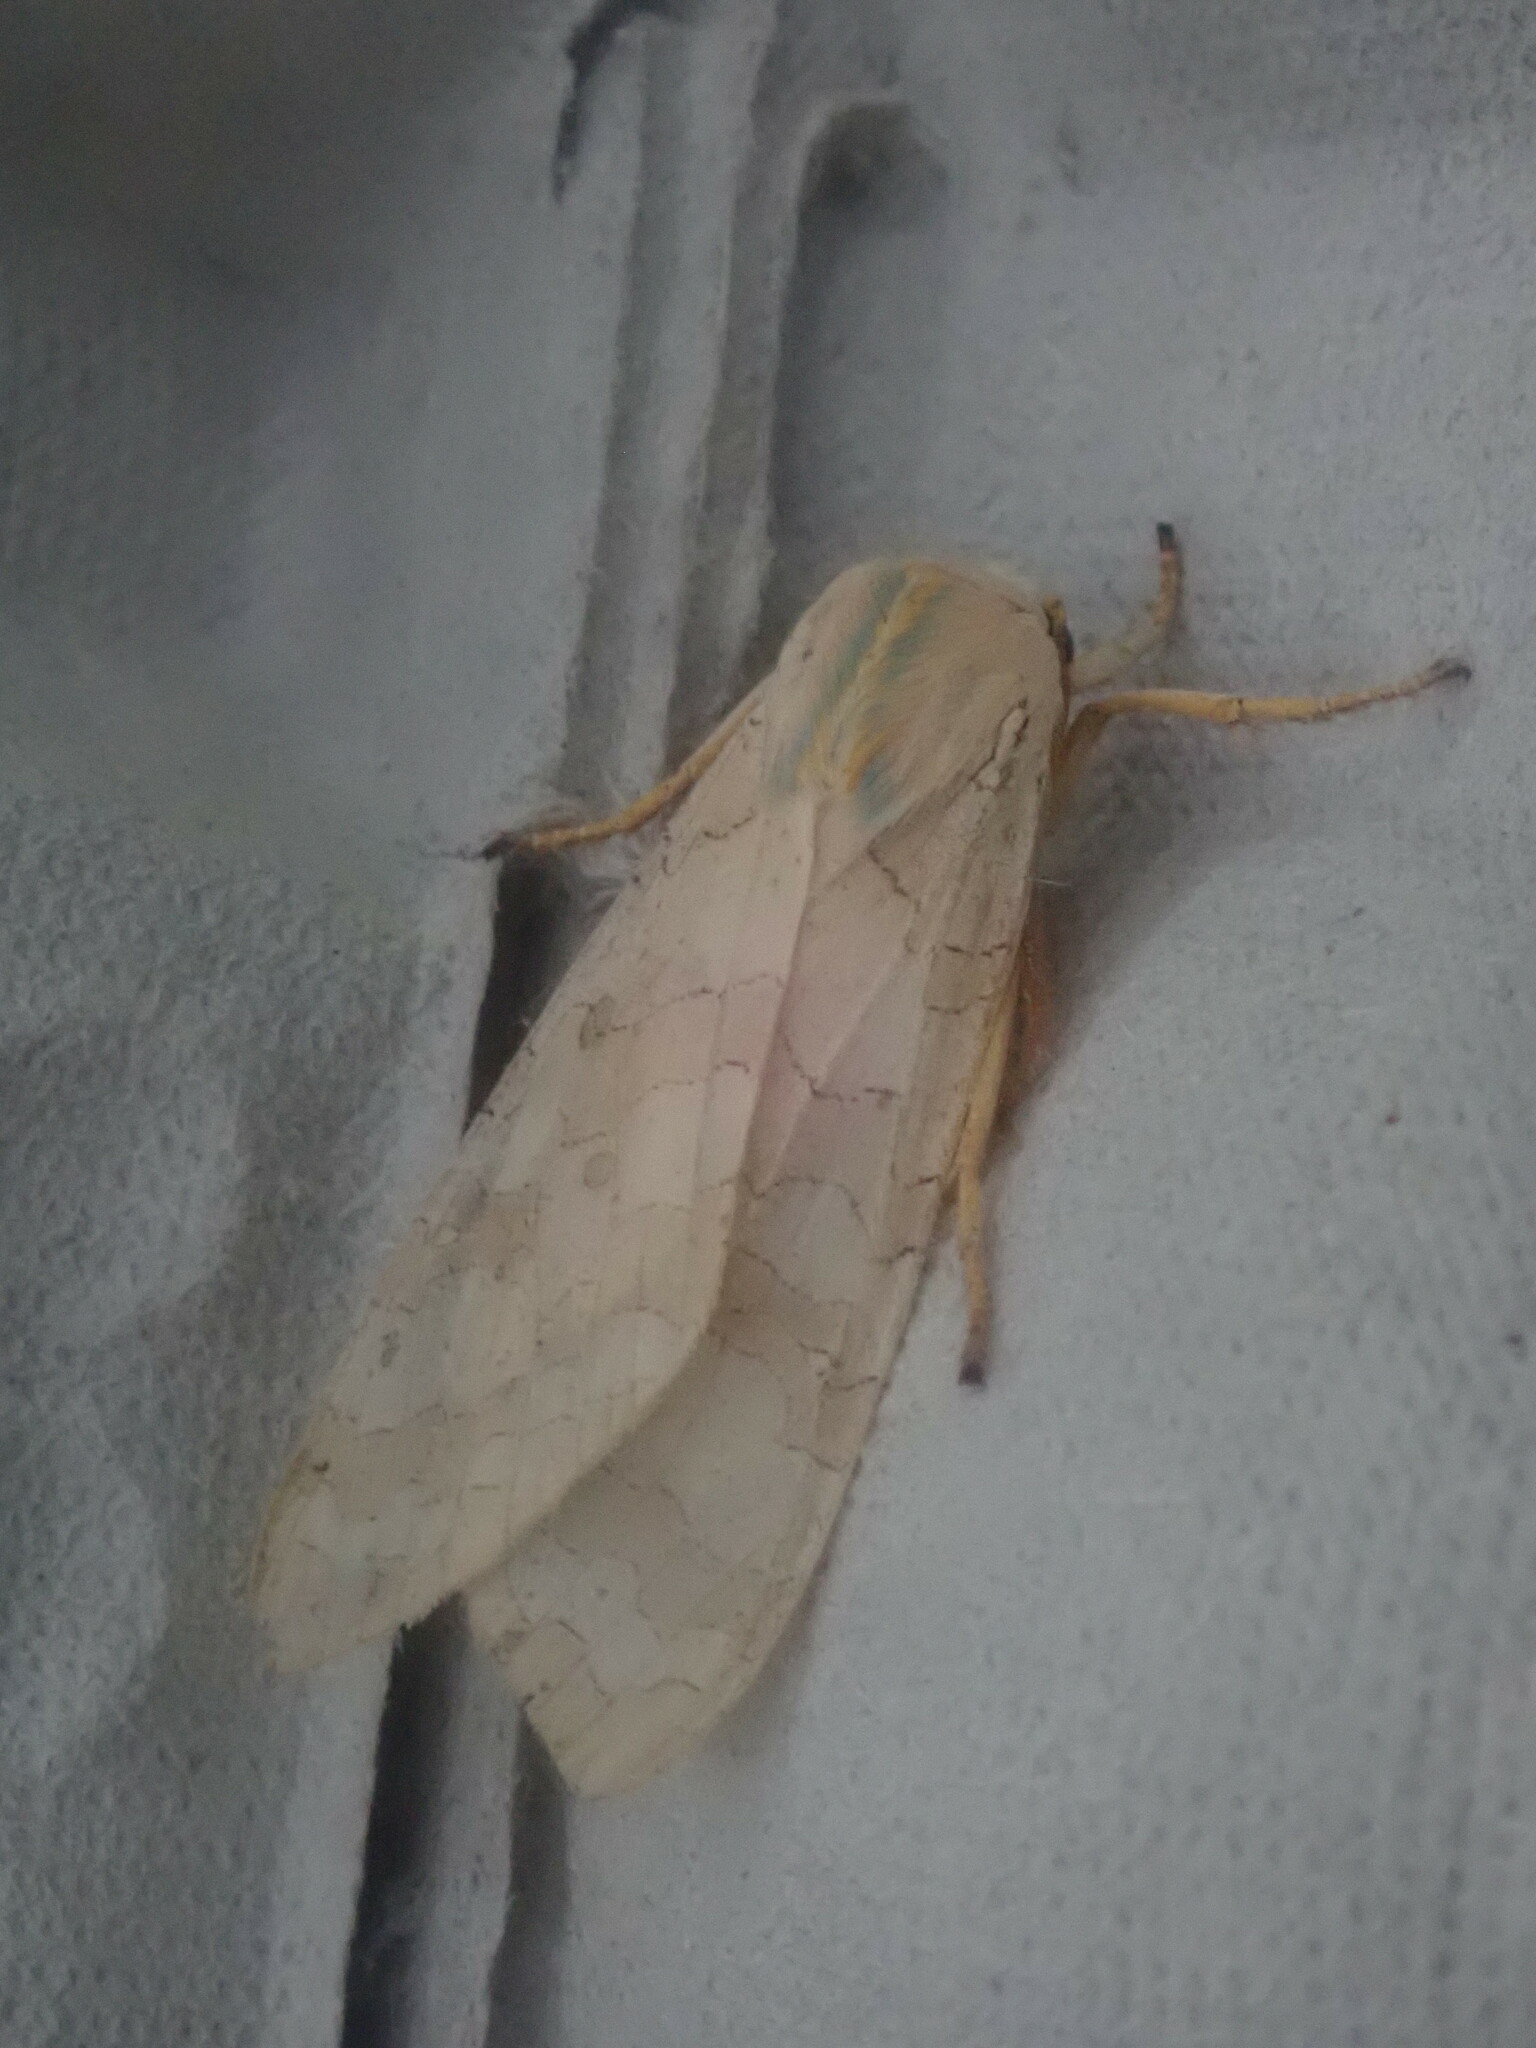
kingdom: Animalia
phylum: Arthropoda
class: Insecta
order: Lepidoptera
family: Erebidae
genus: Halysidota
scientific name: Halysidota
